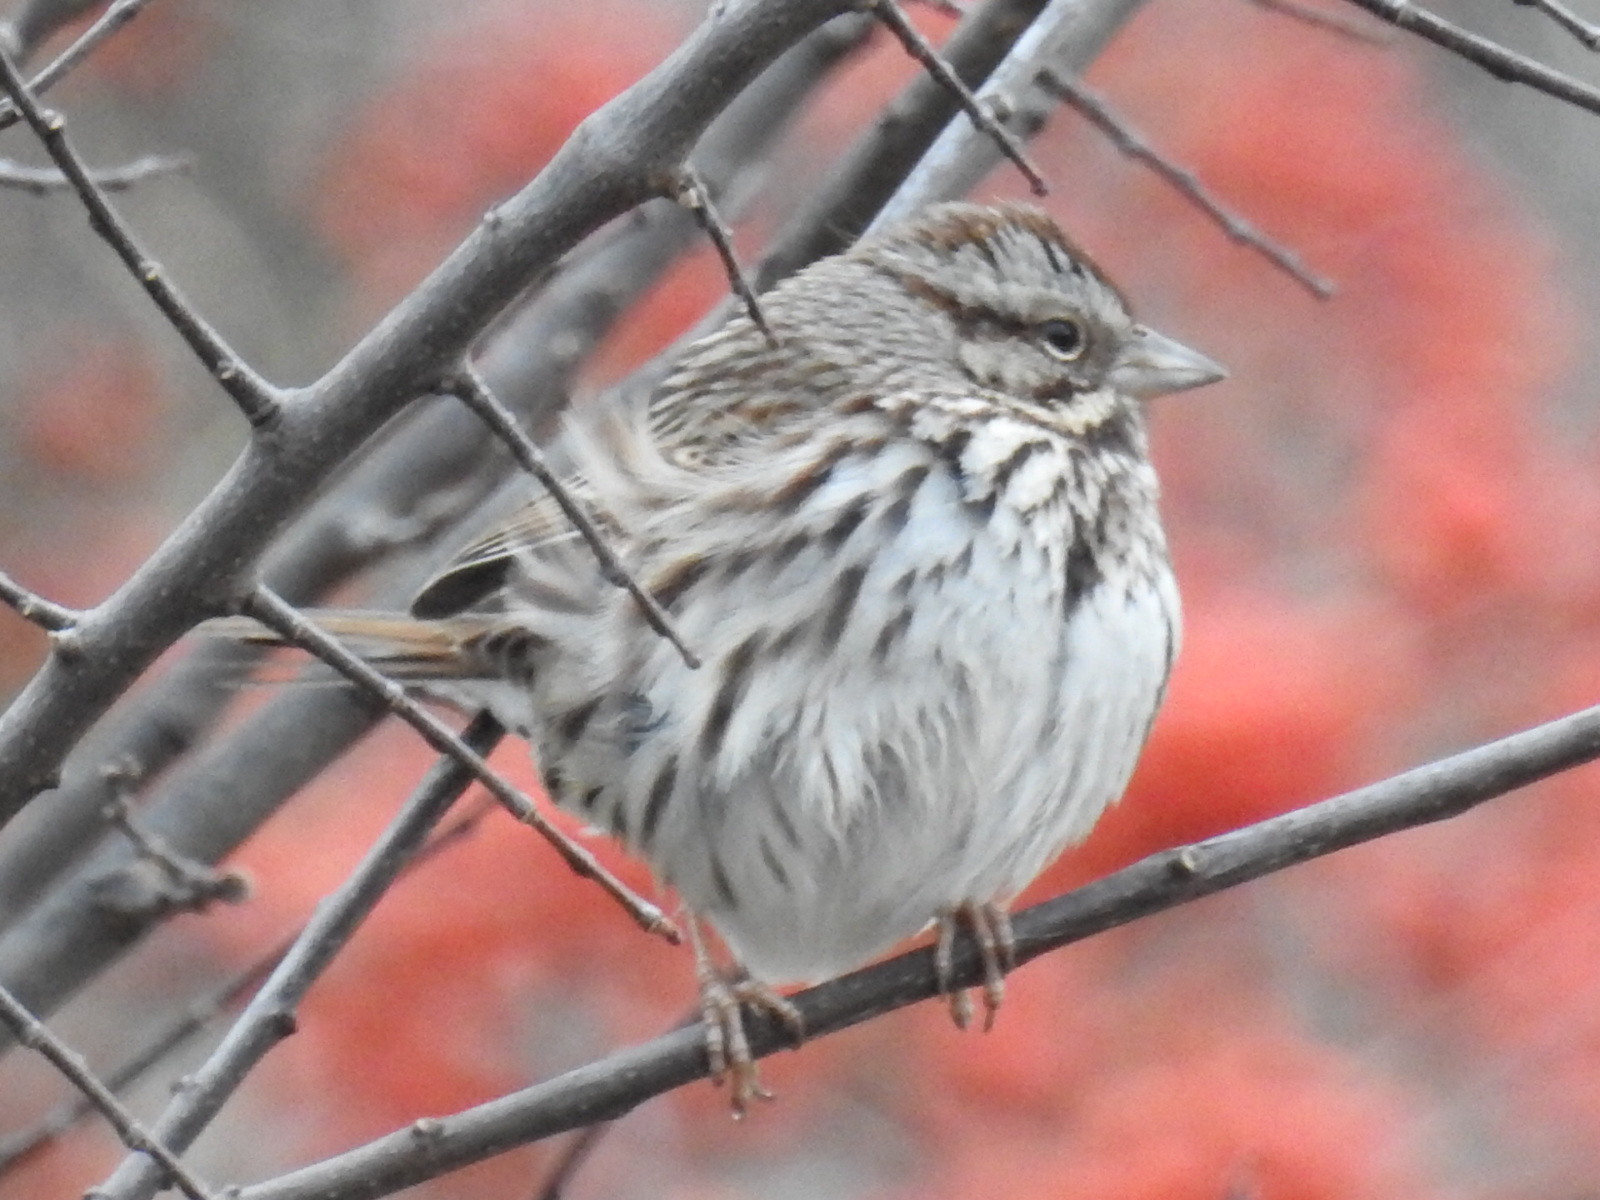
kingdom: Animalia
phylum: Chordata
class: Aves
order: Passeriformes
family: Passerellidae
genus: Melospiza
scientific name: Melospiza melodia
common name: Song sparrow
